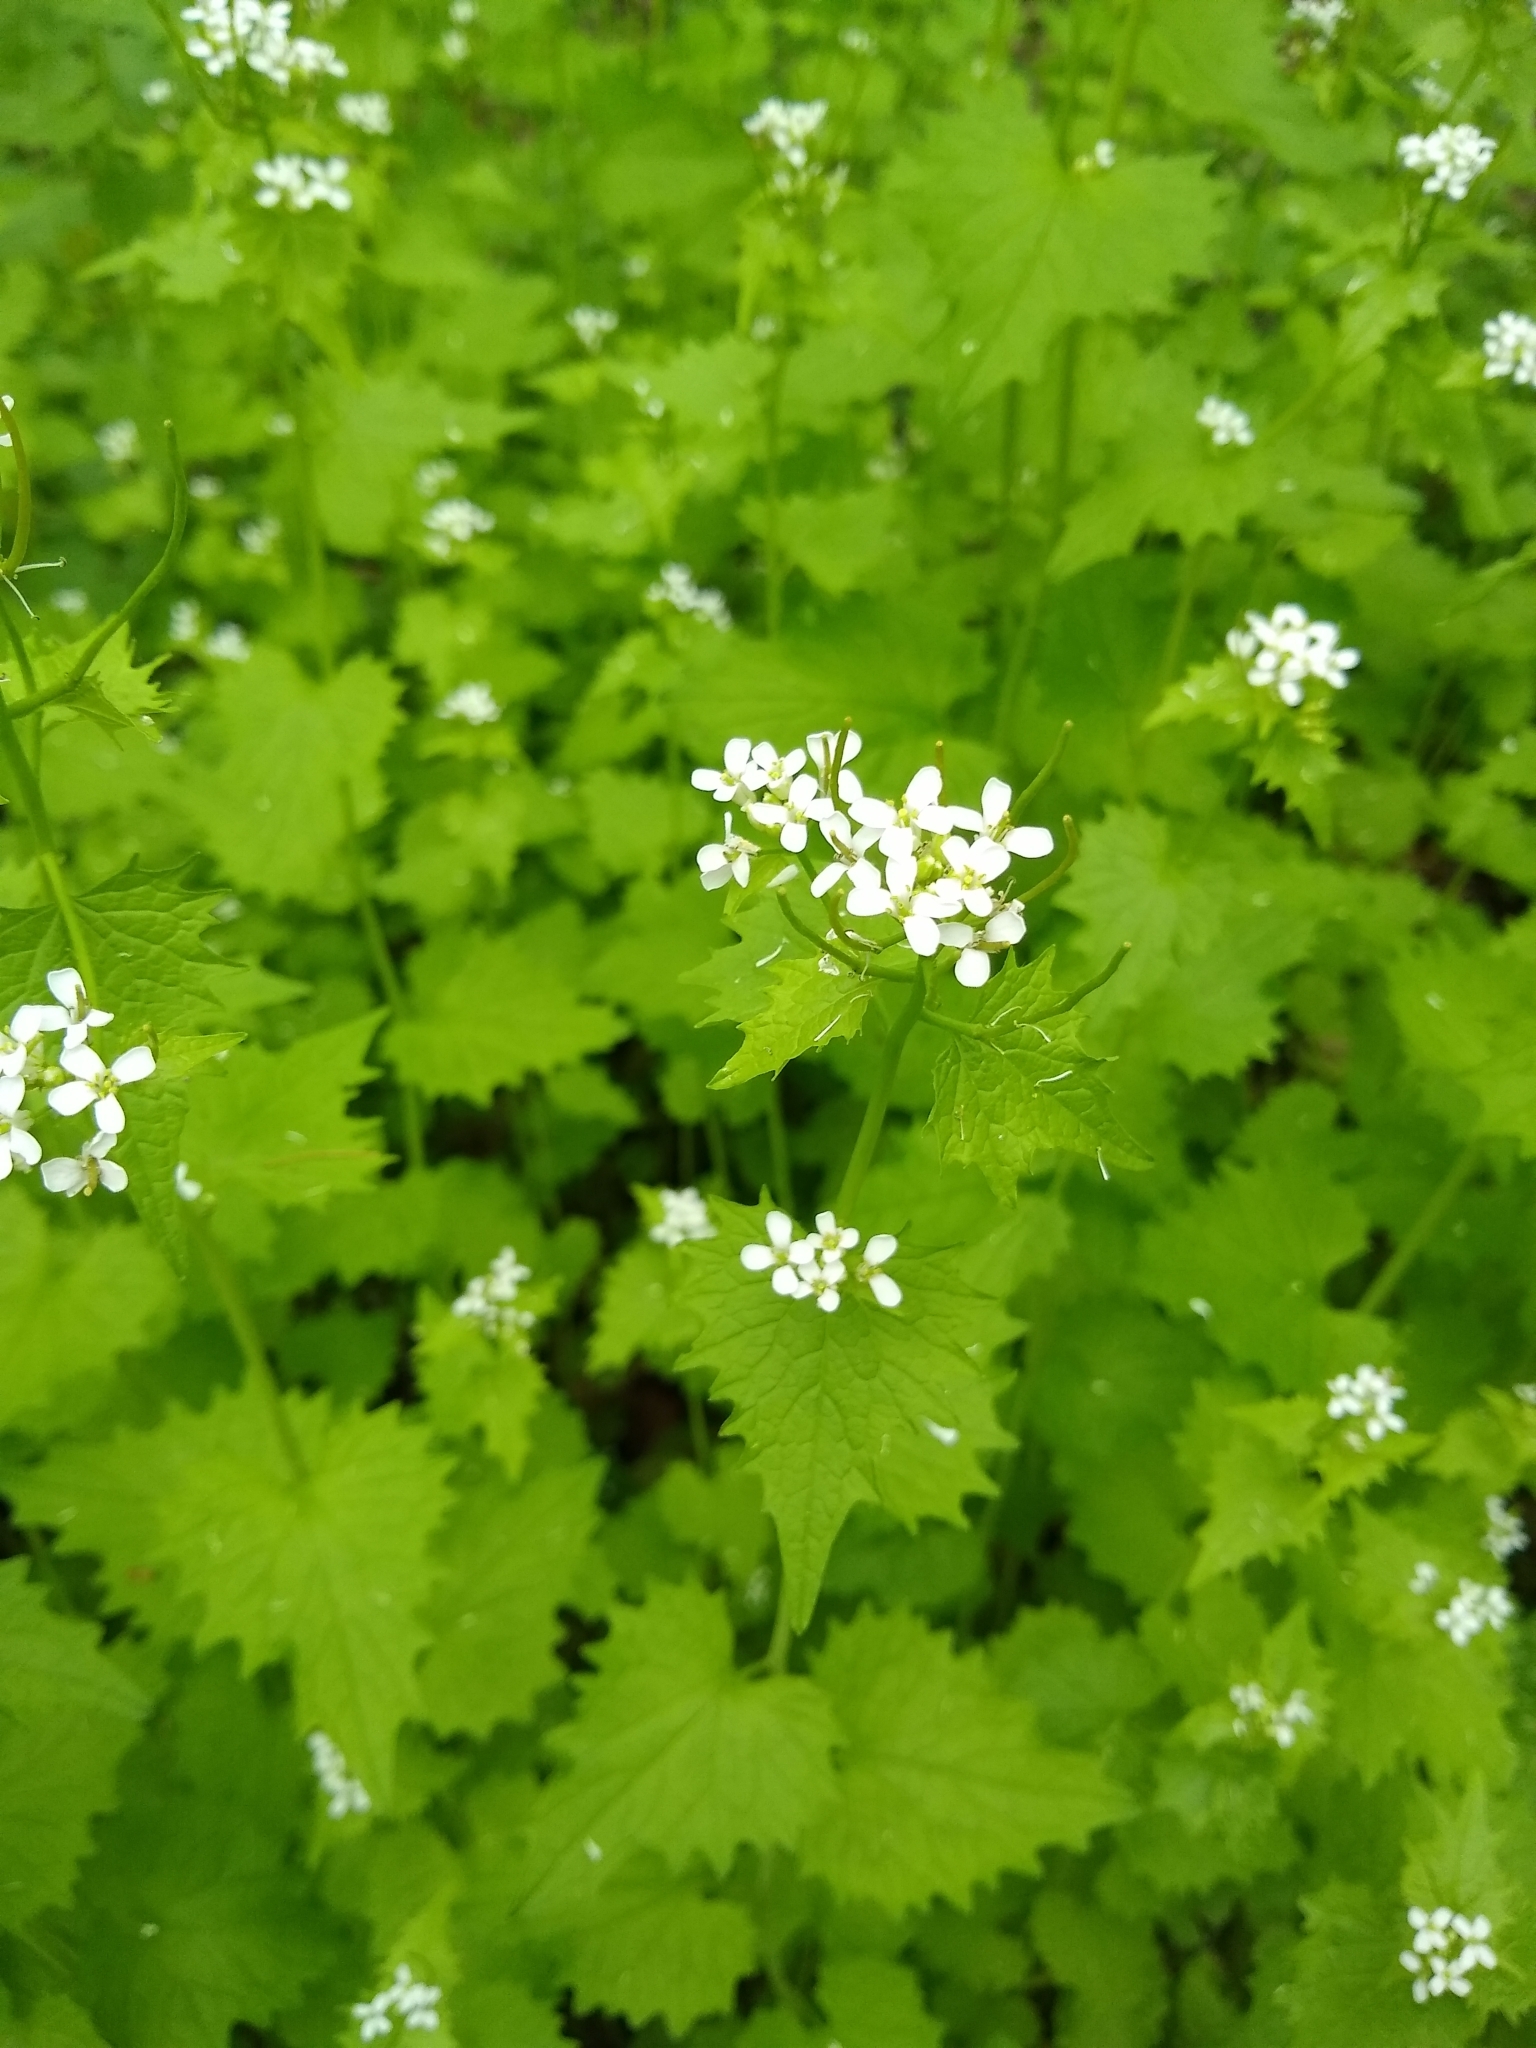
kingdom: Plantae
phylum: Tracheophyta
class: Magnoliopsida
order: Brassicales
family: Brassicaceae
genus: Alliaria
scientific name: Alliaria petiolata
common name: Garlic mustard
